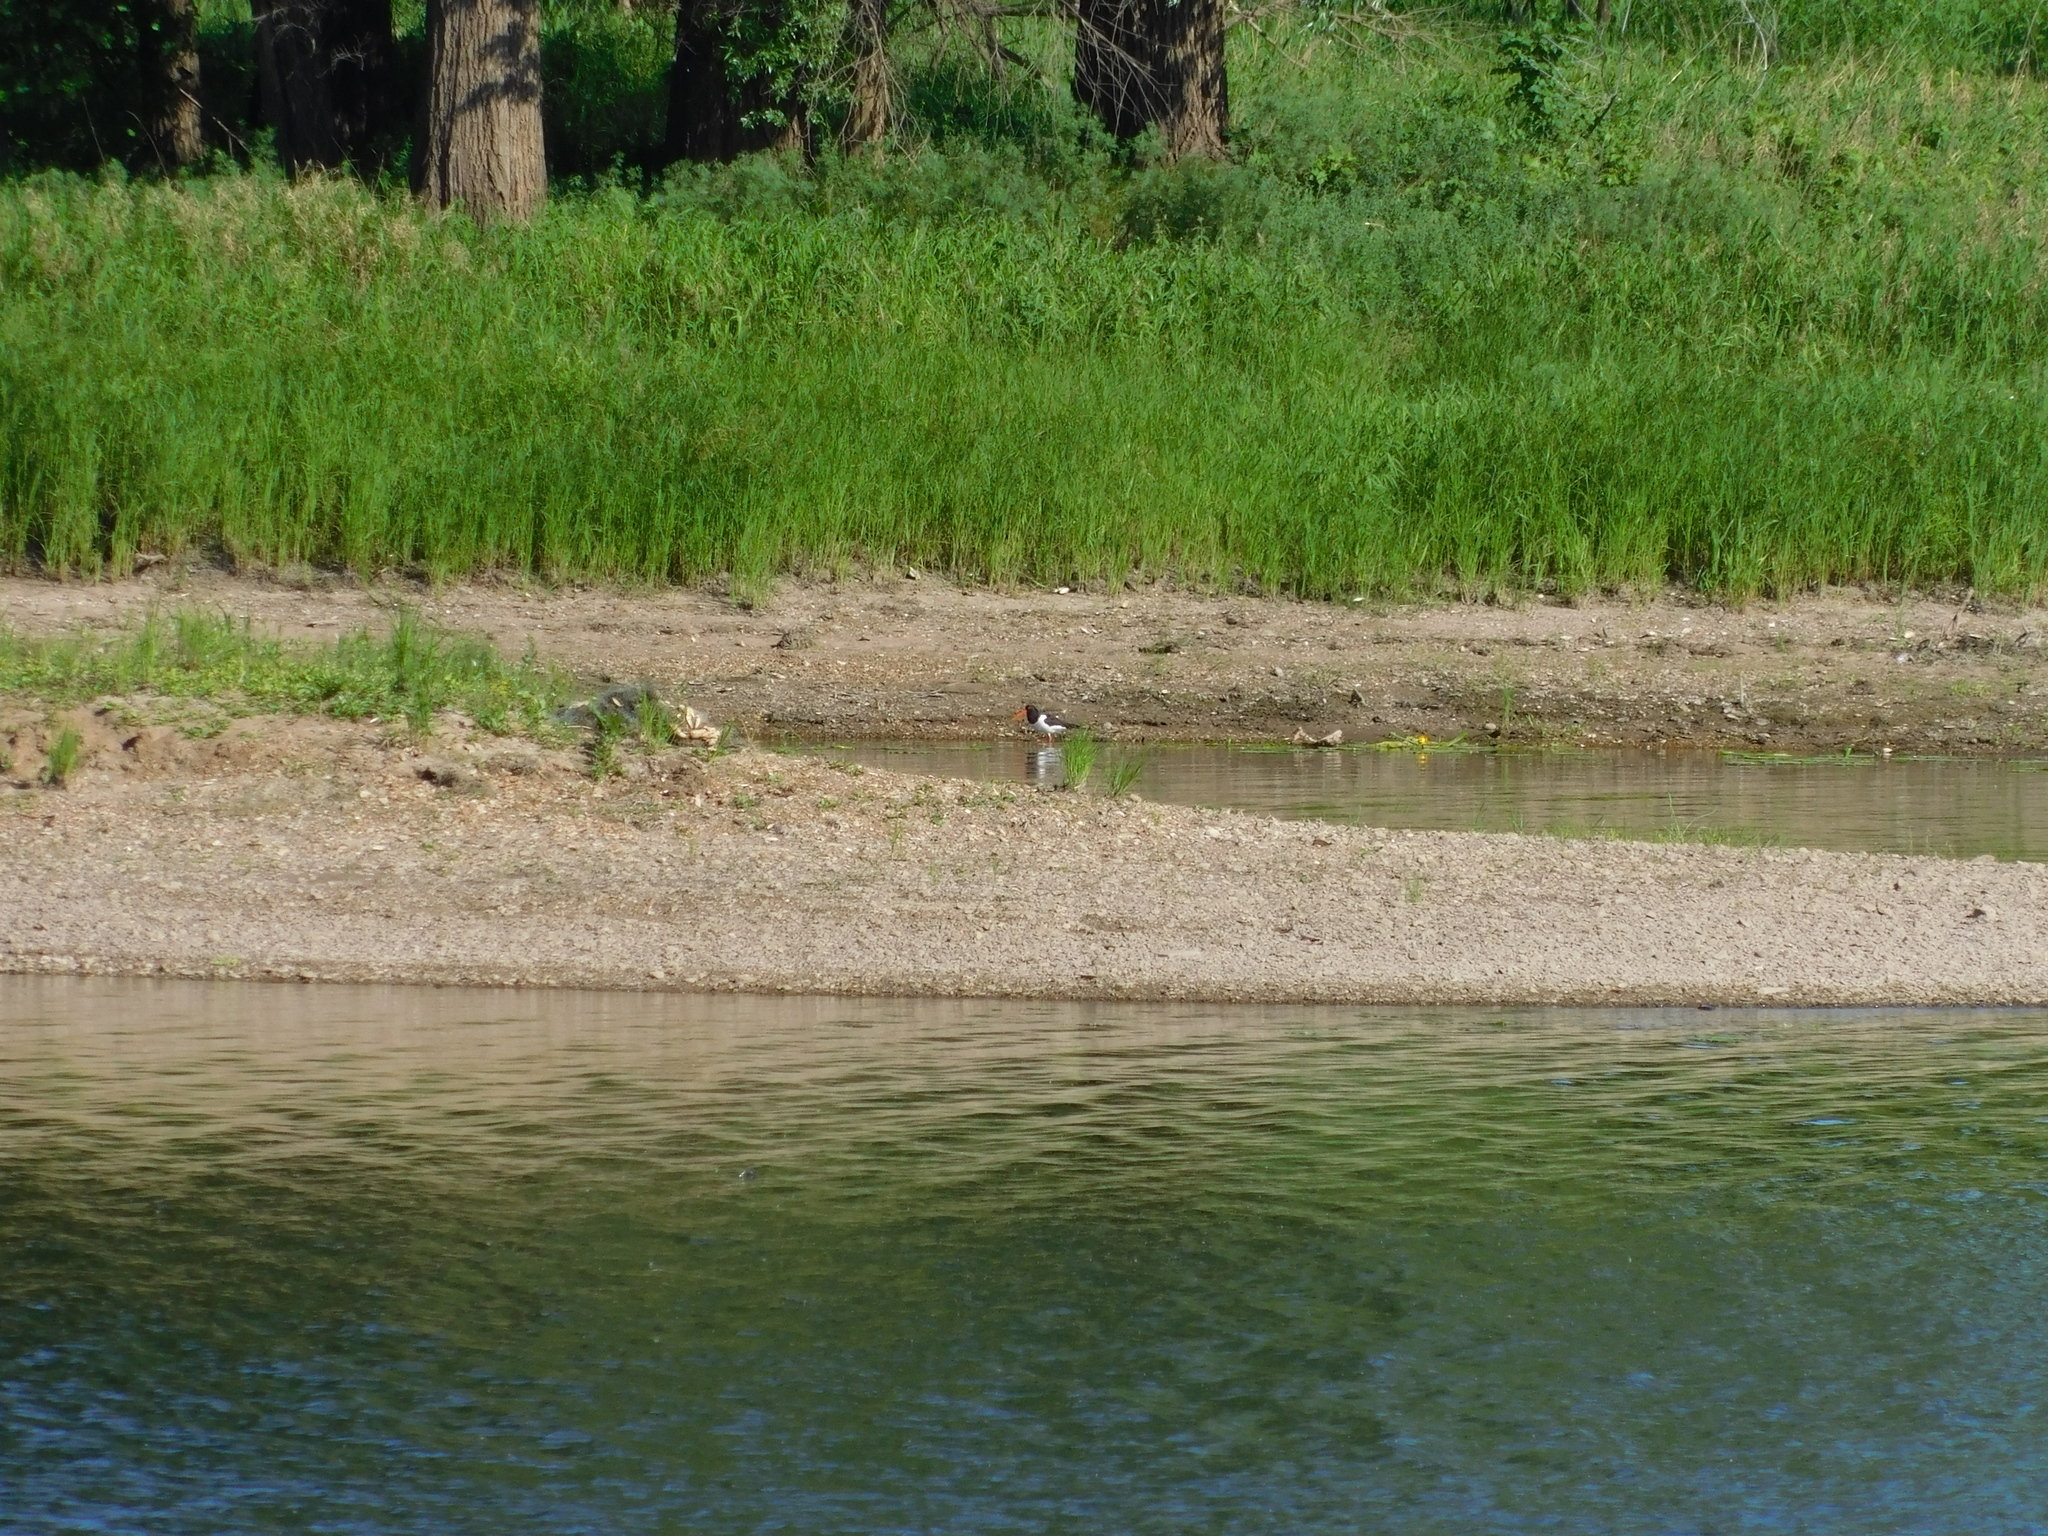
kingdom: Animalia
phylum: Chordata
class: Aves
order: Charadriiformes
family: Haematopodidae
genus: Haematopus
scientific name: Haematopus ostralegus
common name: Eurasian oystercatcher
